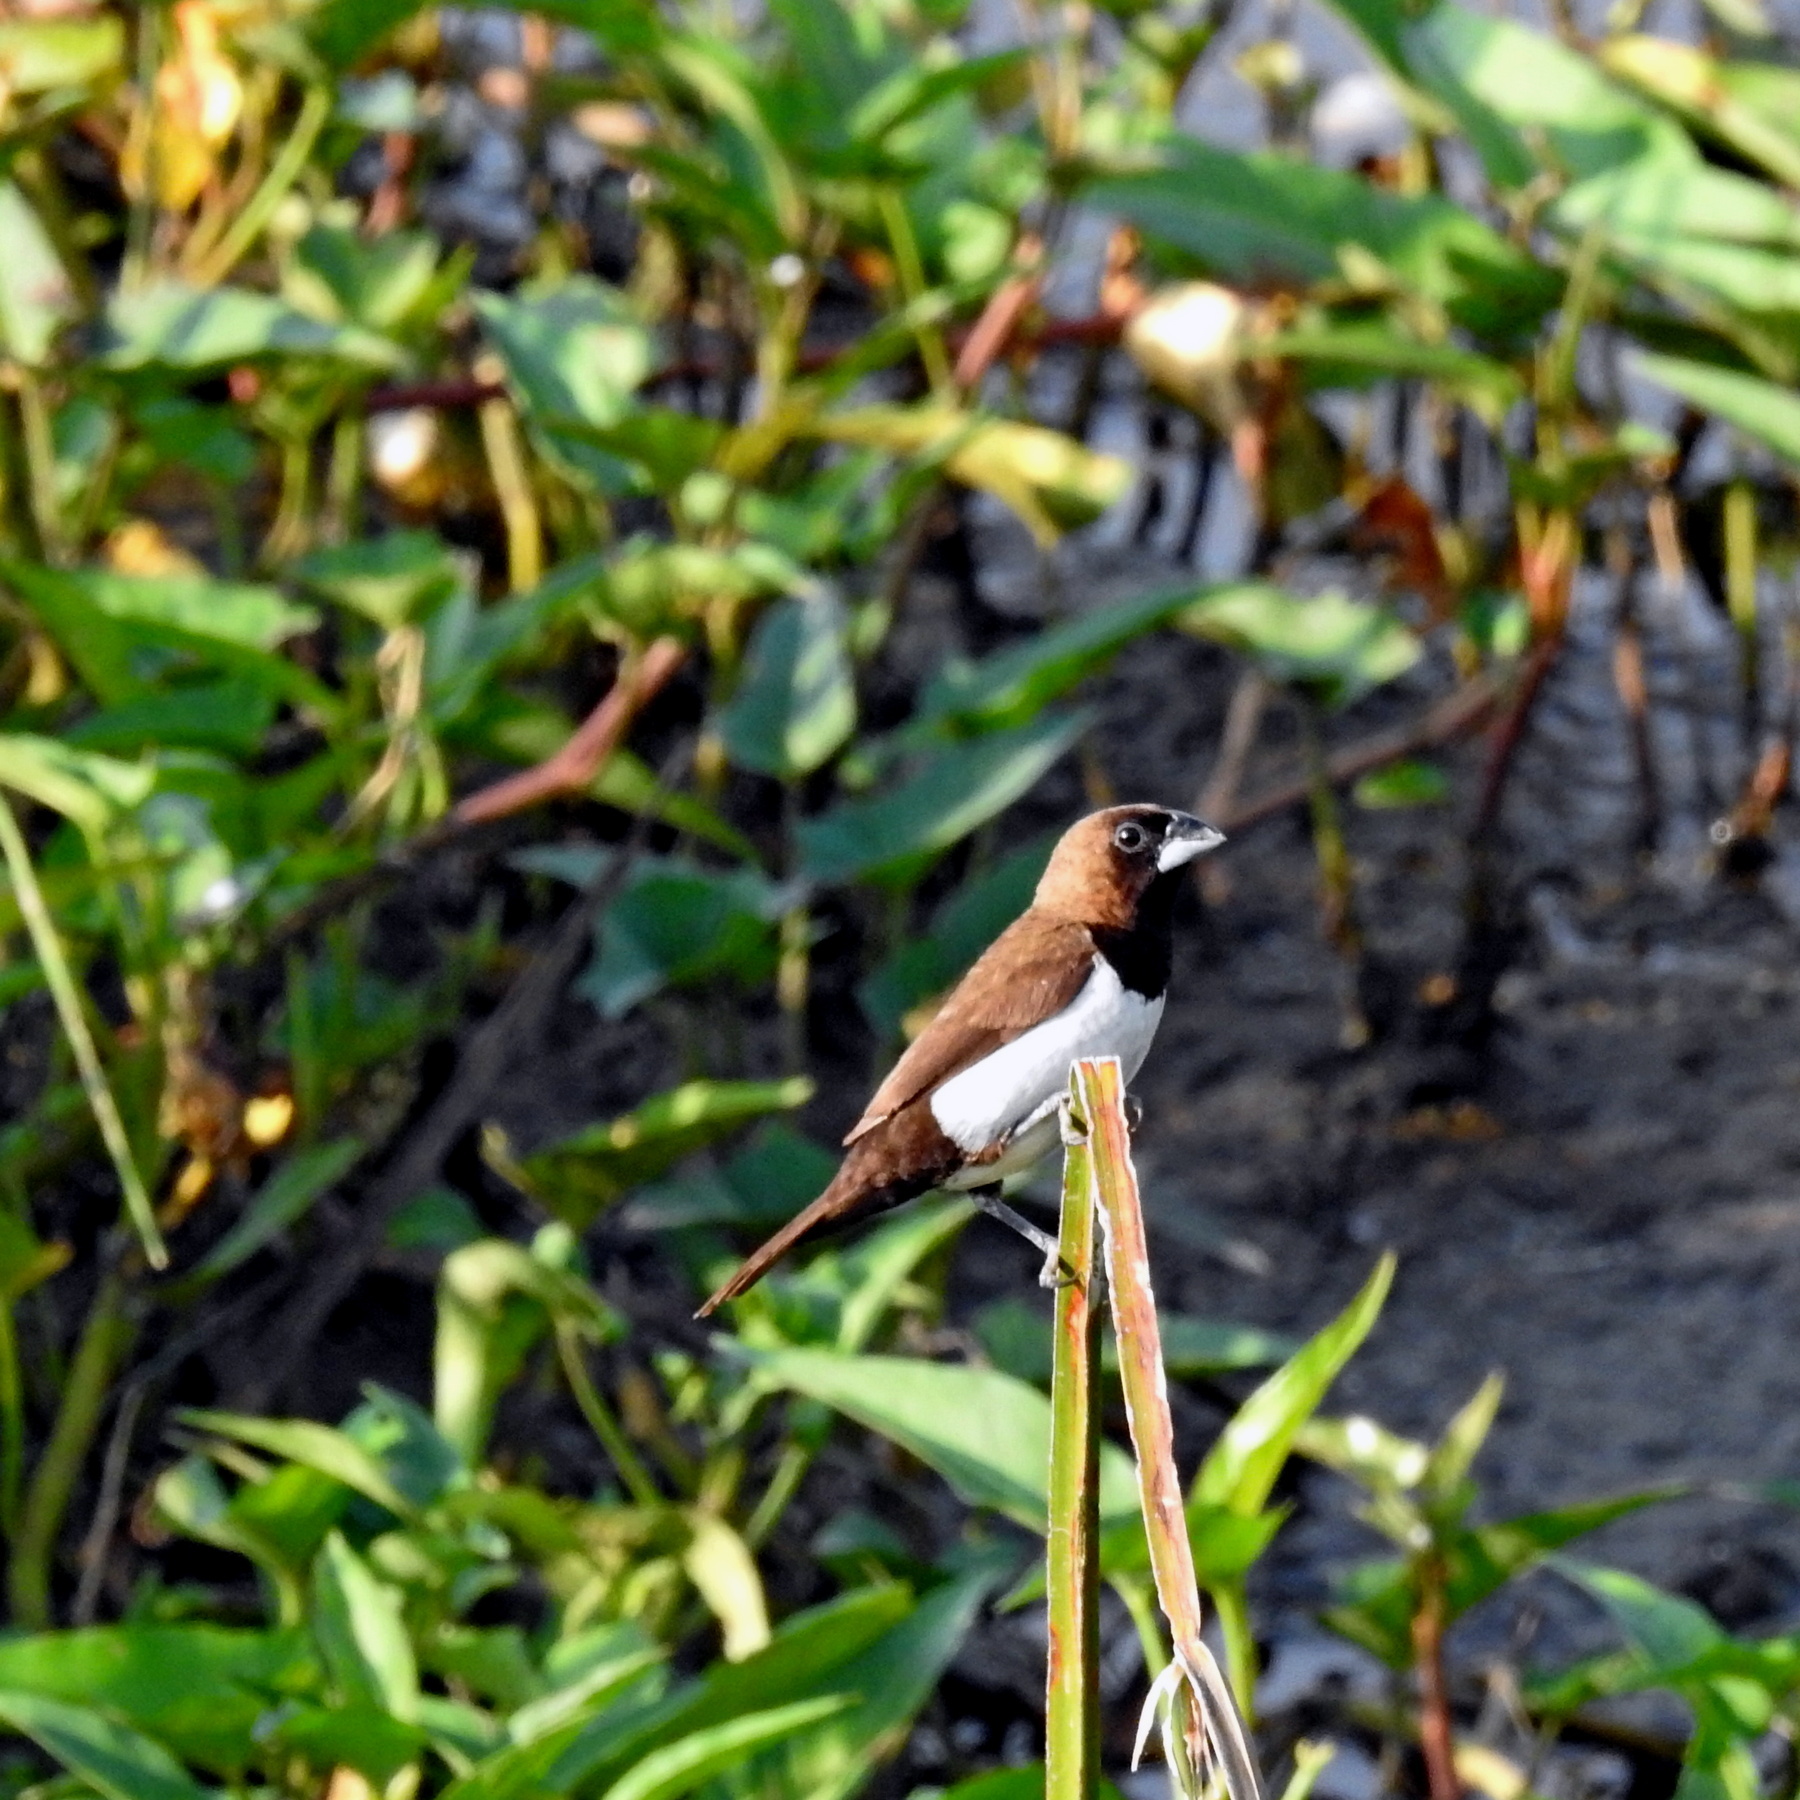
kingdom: Animalia
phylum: Chordata
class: Aves
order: Passeriformes
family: Estrildidae
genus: Lonchura
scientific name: Lonchura leucogastroides
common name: Javan munia
